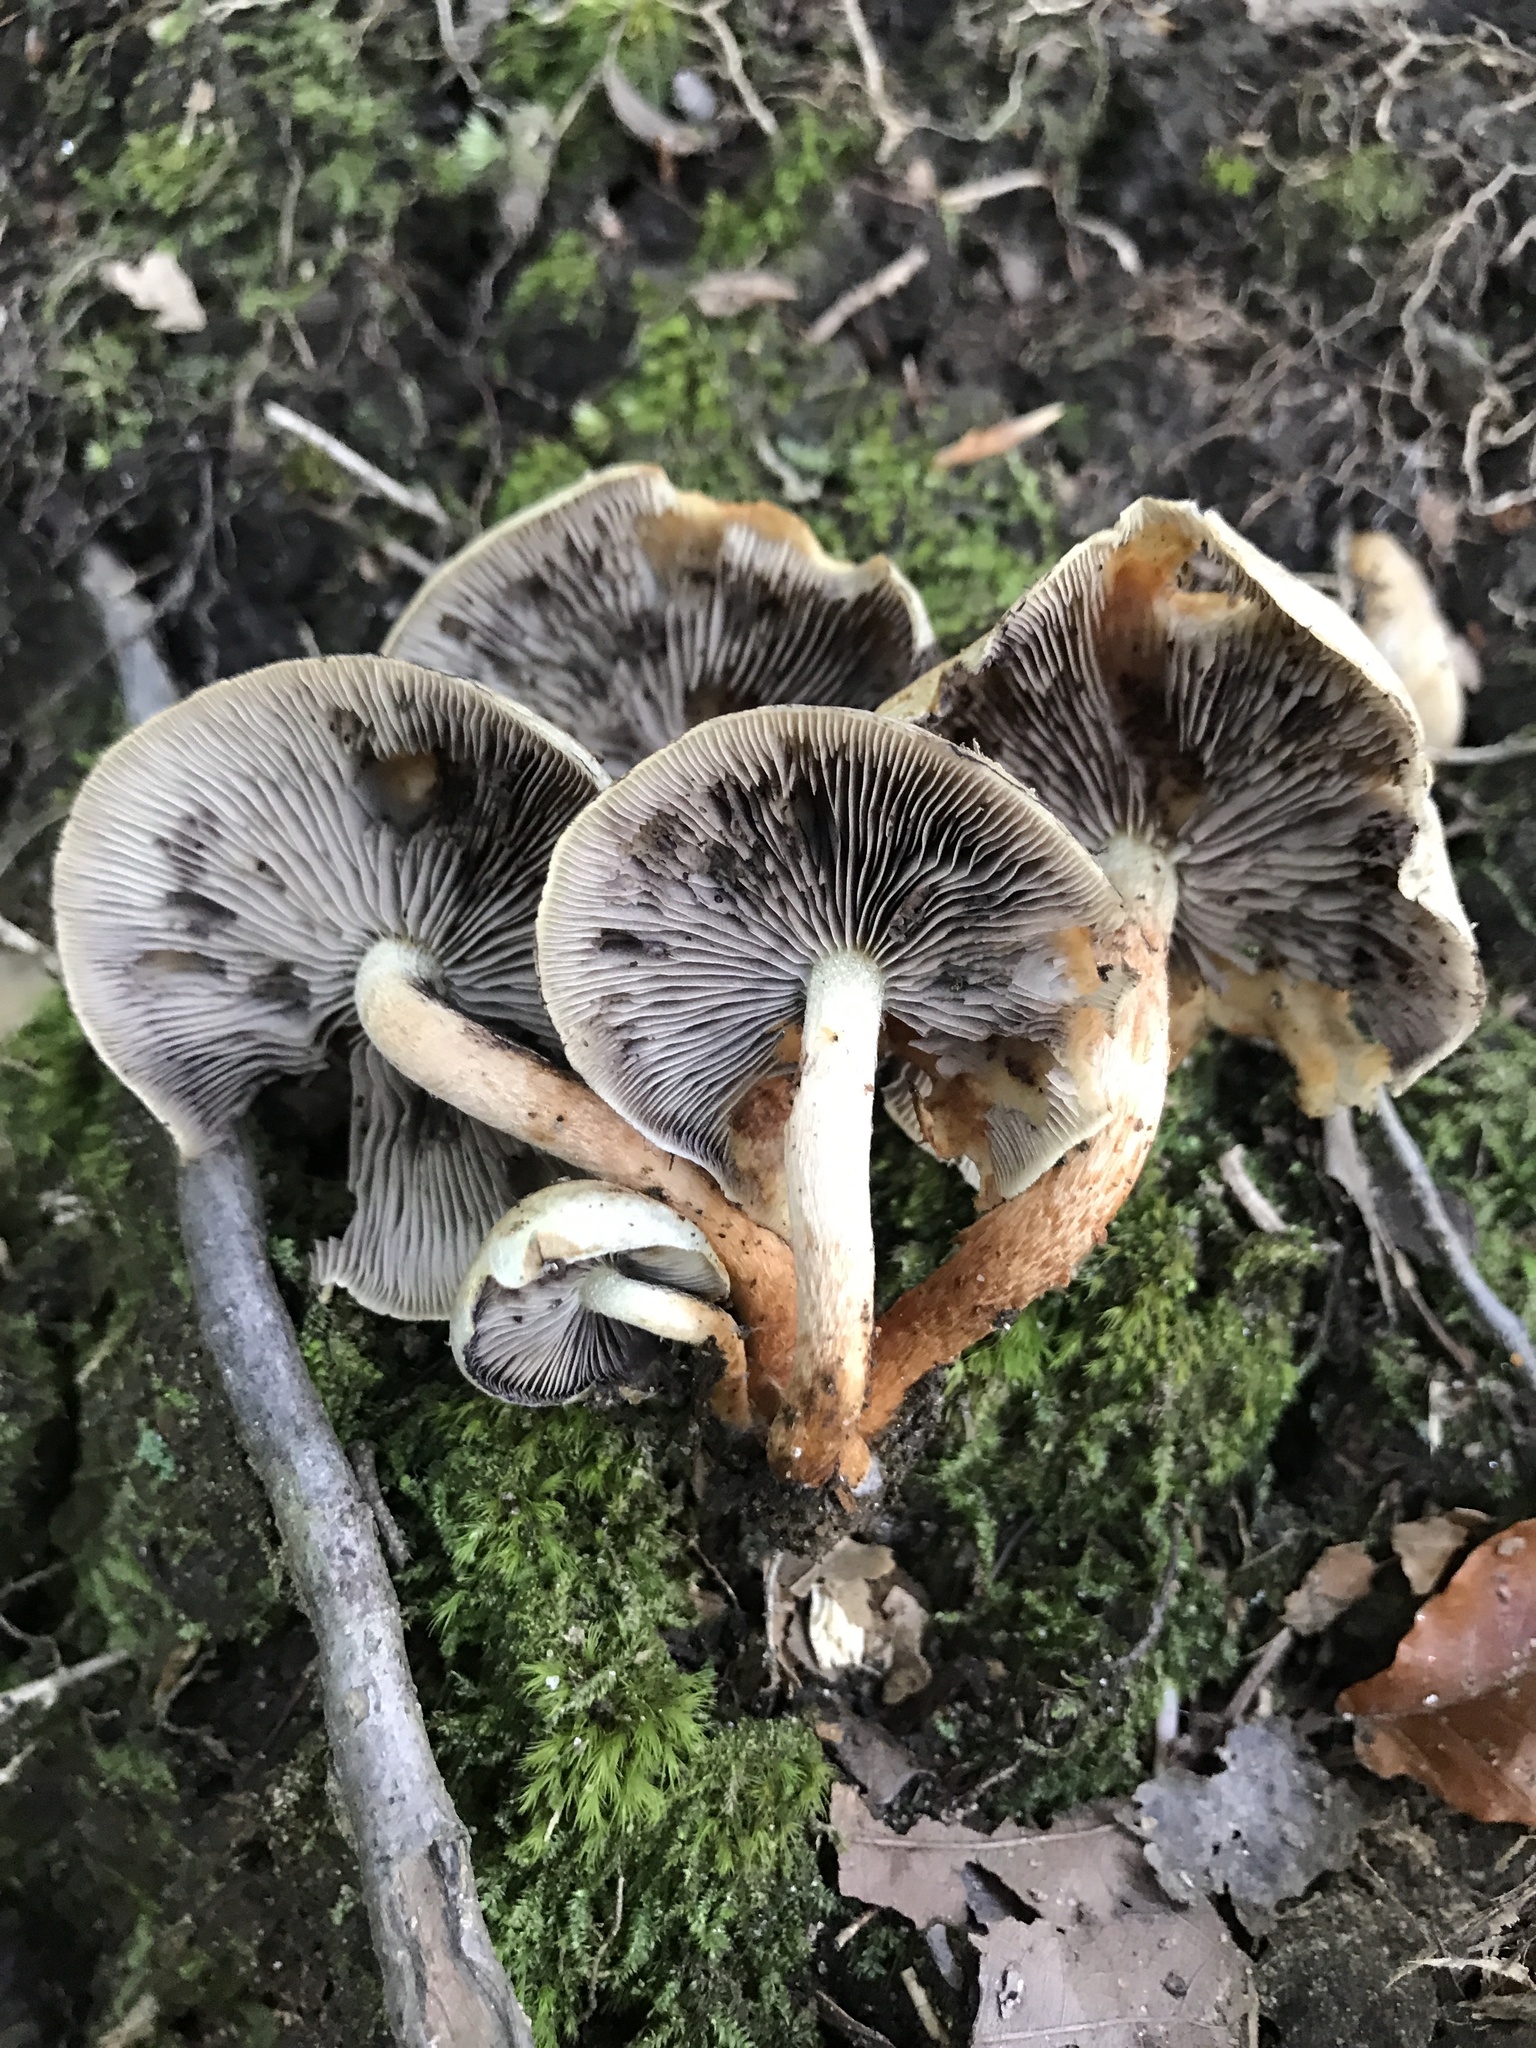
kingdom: Fungi
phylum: Basidiomycota
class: Agaricomycetes
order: Agaricales
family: Strophariaceae
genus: Hypholoma
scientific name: Hypholoma lateritium
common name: Brick caps
